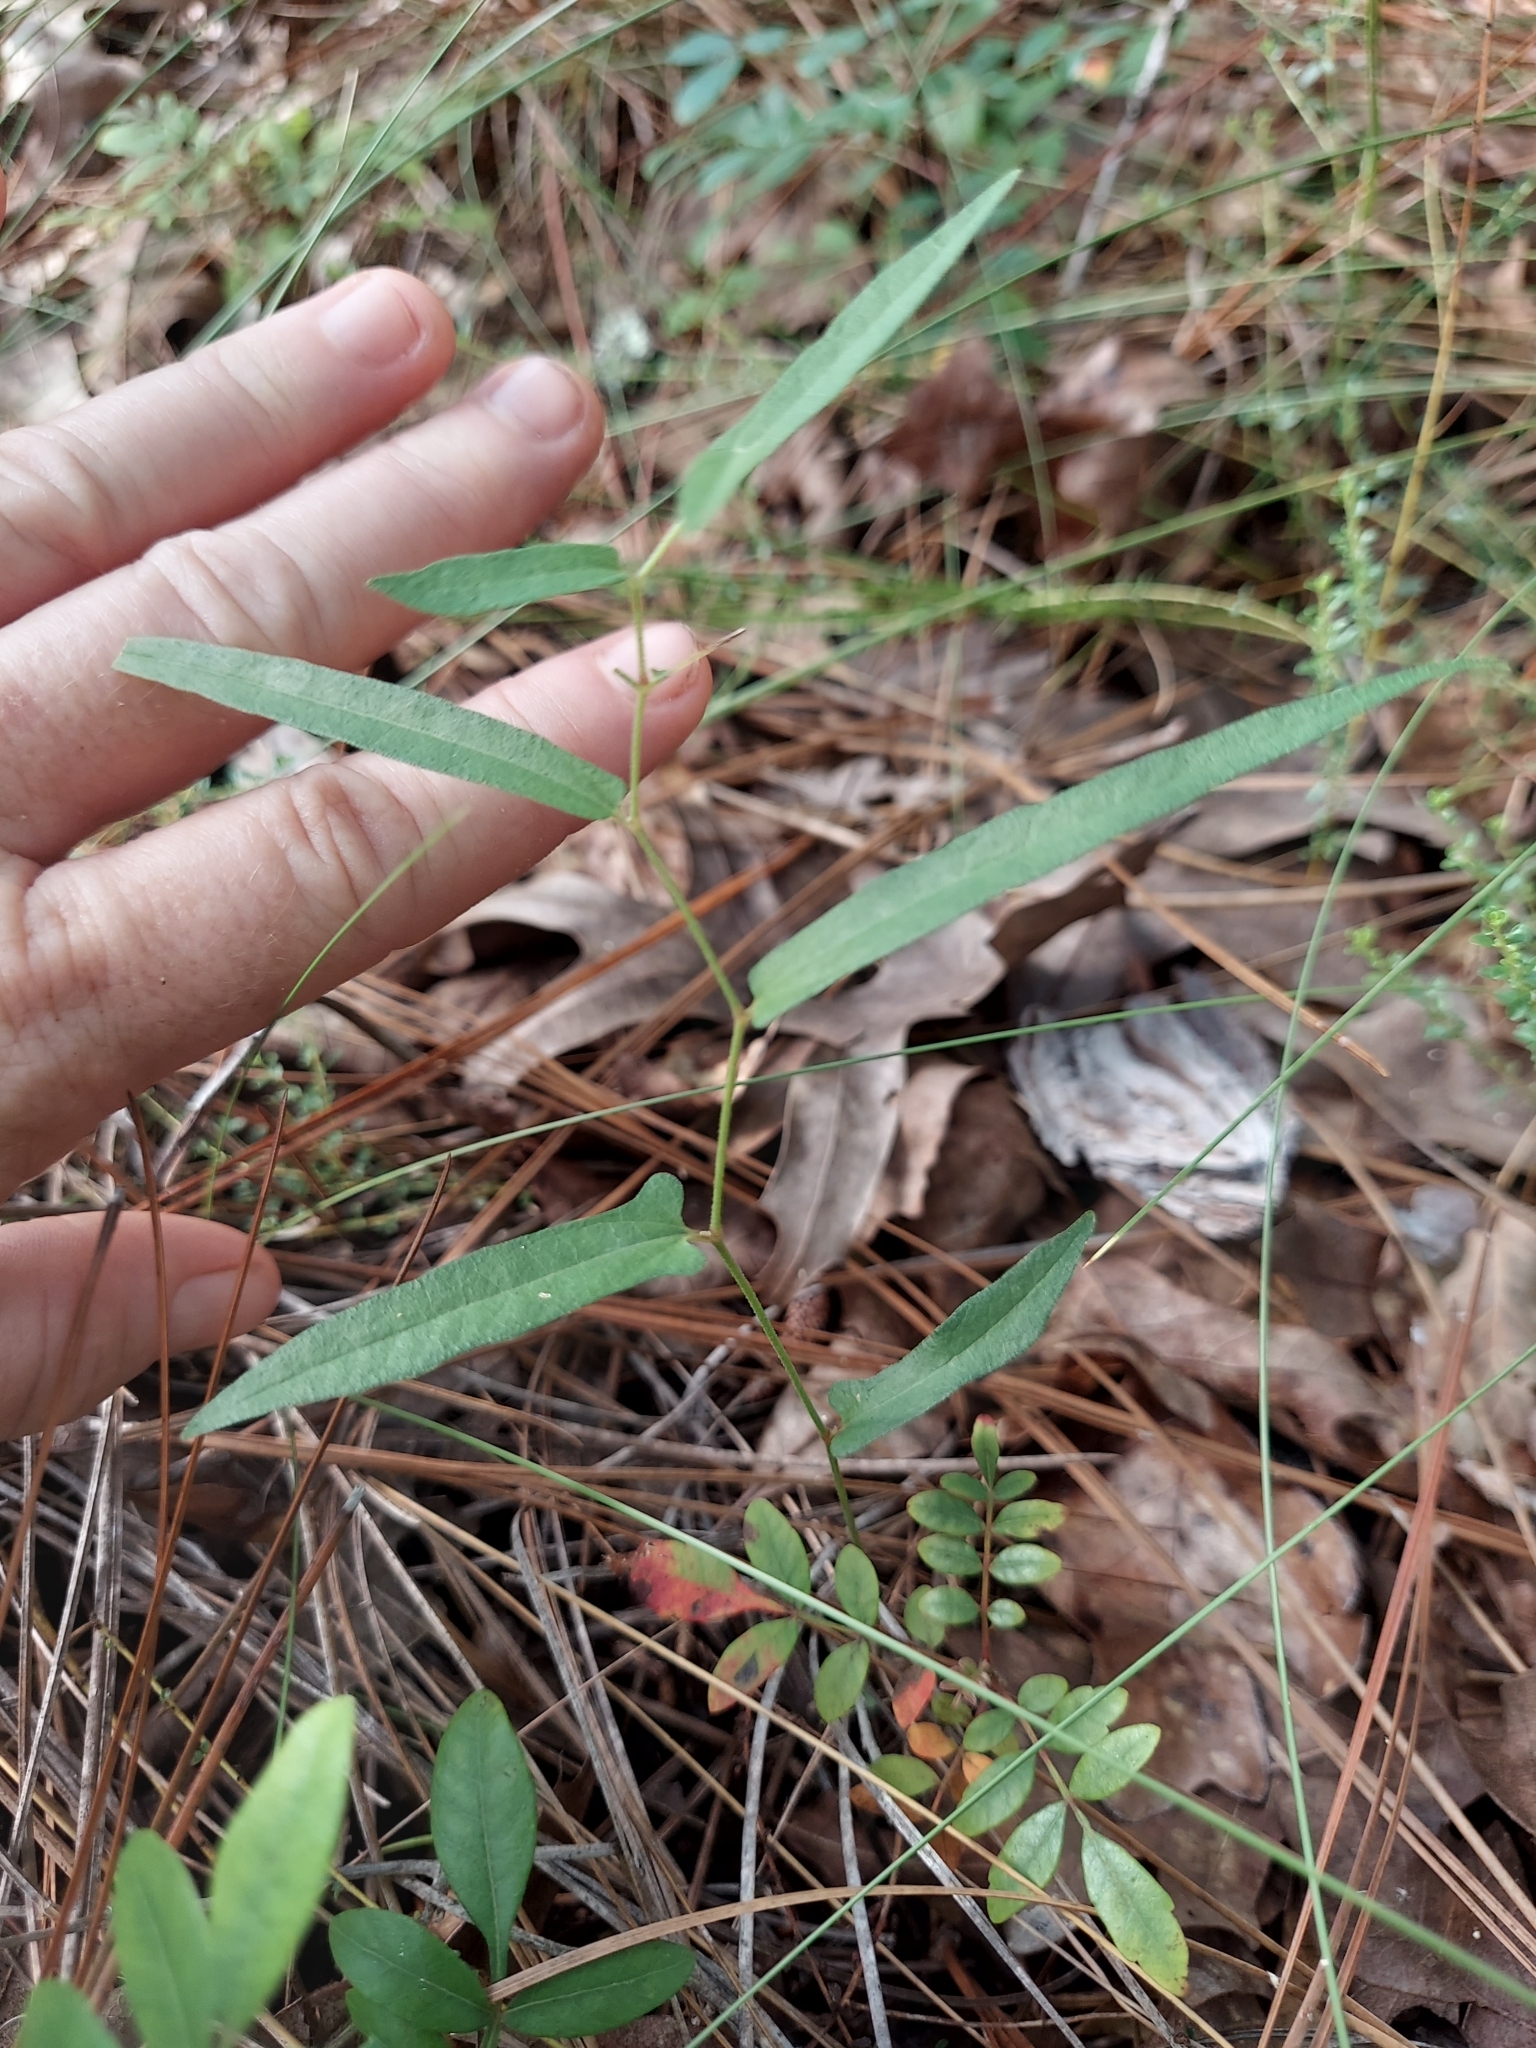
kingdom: Plantae
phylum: Tracheophyta
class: Magnoliopsida
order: Piperales
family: Aristolochiaceae
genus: Endodeca
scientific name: Endodeca serpentaria
